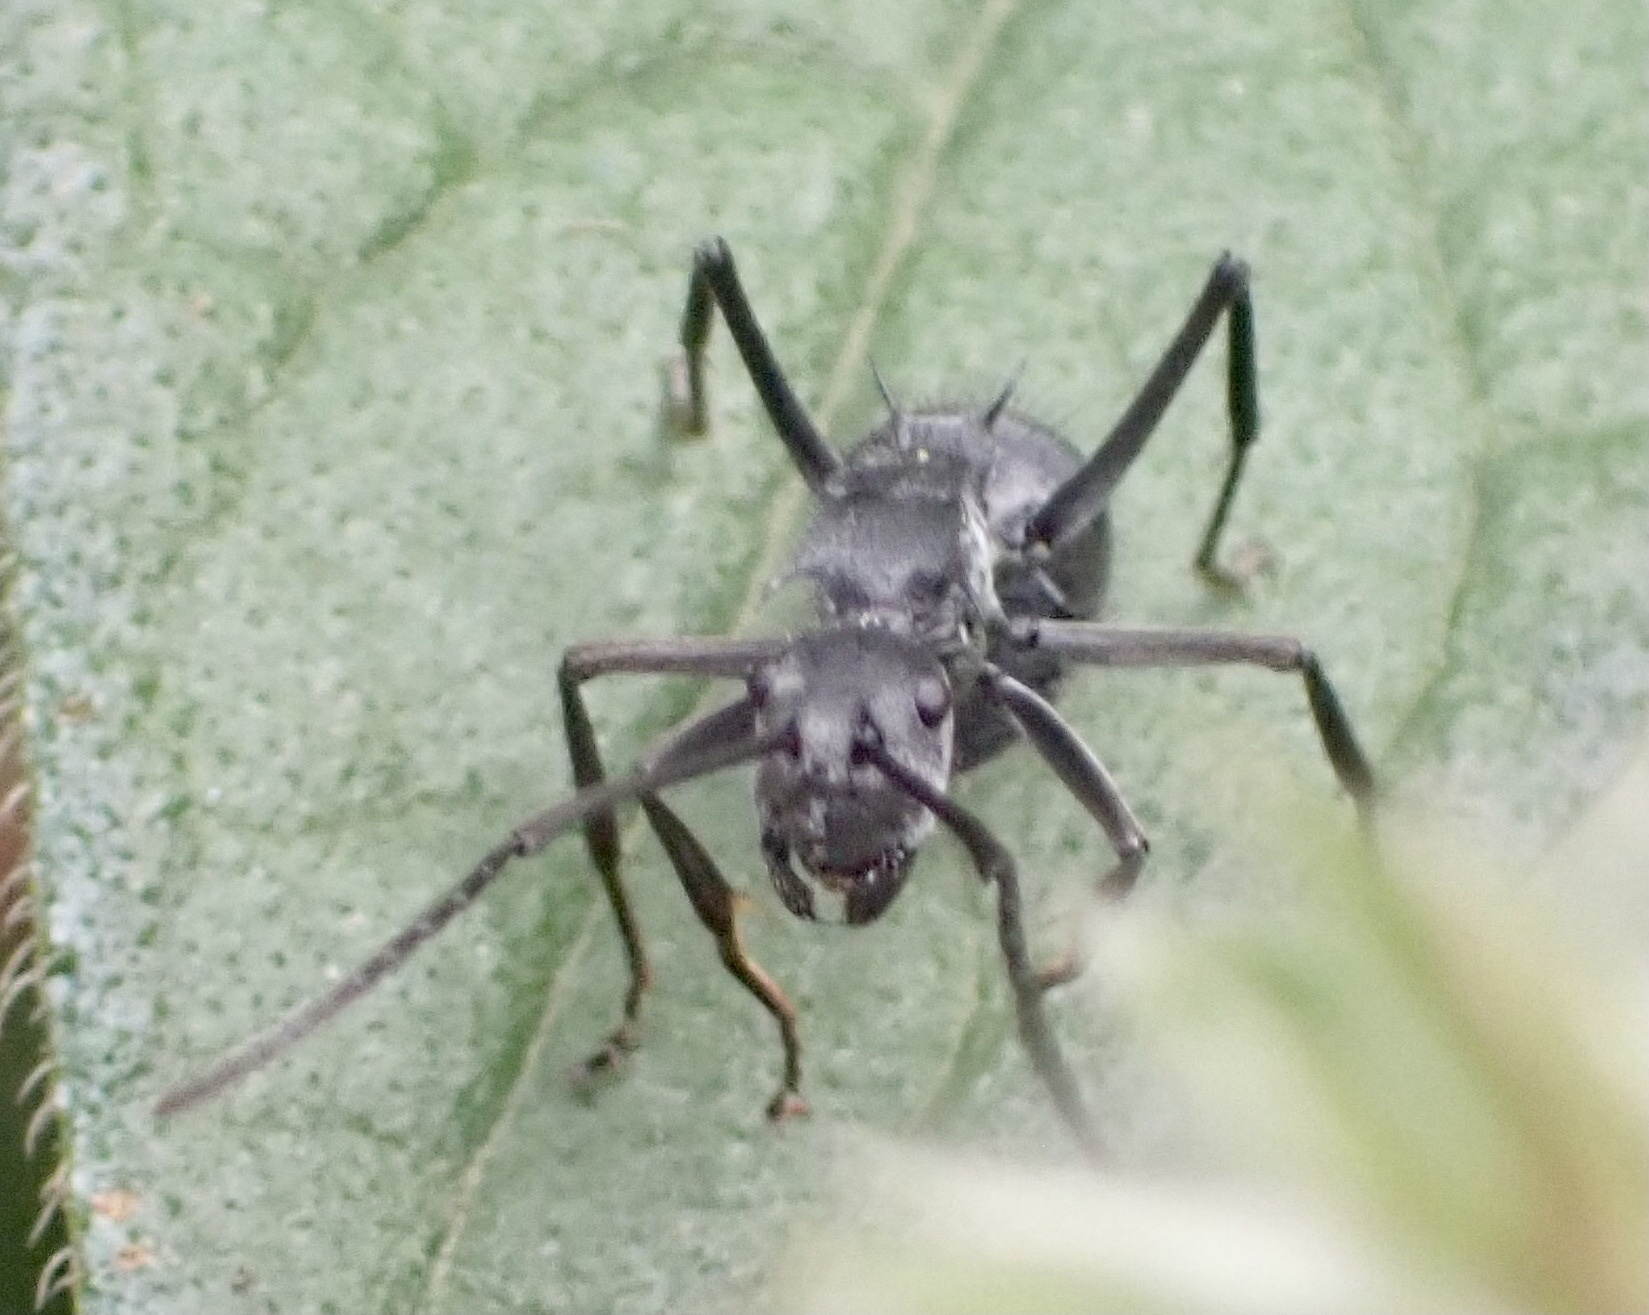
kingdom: Animalia
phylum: Arthropoda
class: Insecta
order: Hymenoptera
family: Formicidae
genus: Polyrhachis
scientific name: Polyrhachis schistacea
